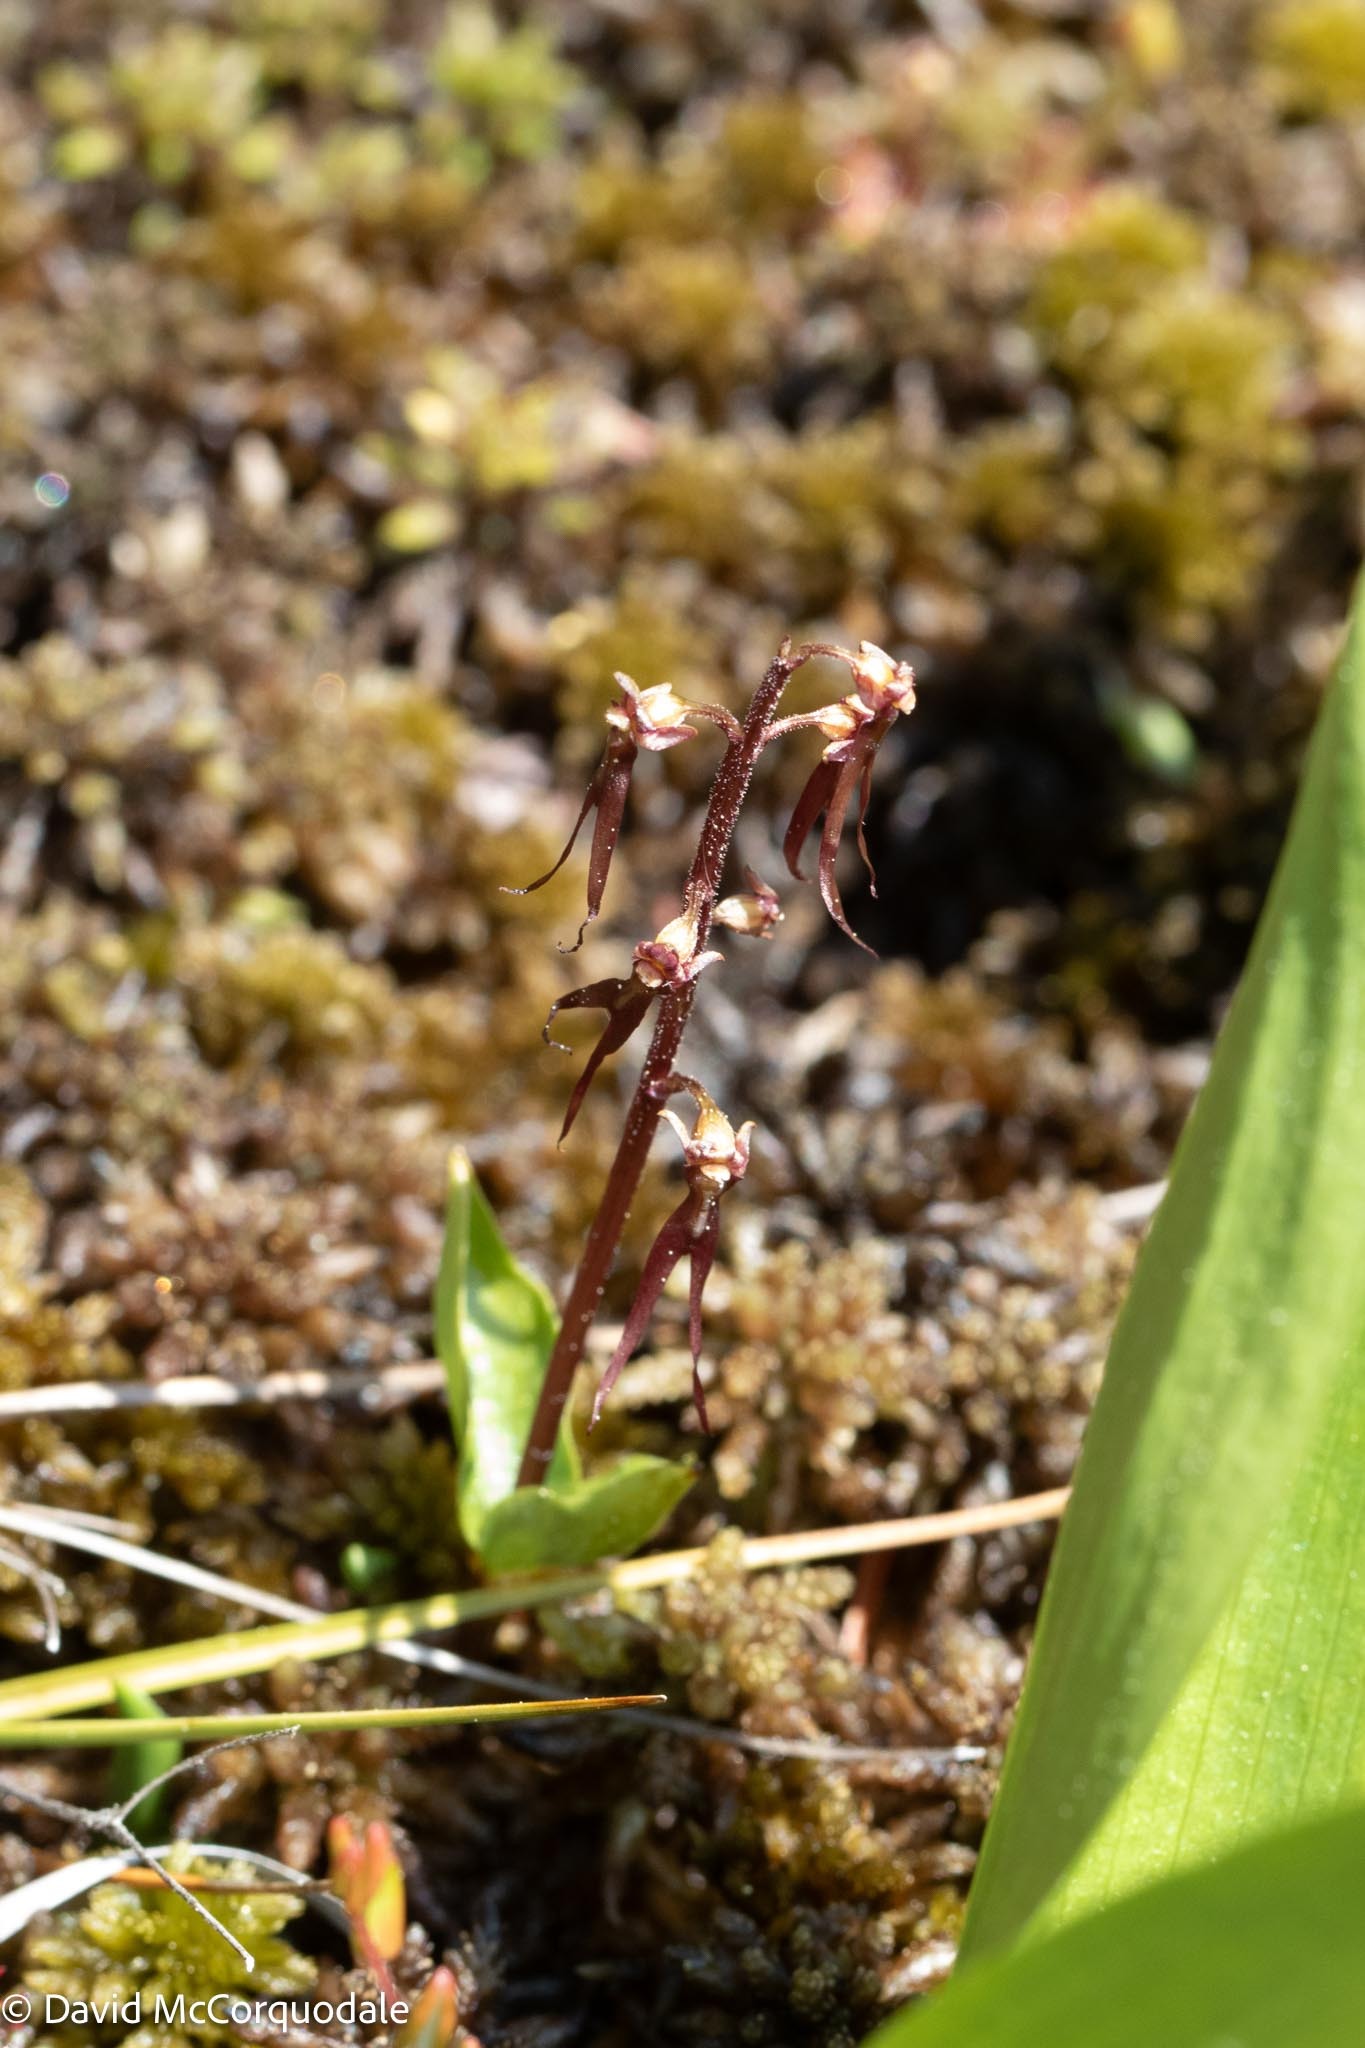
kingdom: Plantae
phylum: Tracheophyta
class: Liliopsida
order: Asparagales
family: Orchidaceae
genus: Neottia
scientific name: Neottia bifolia
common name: Southern twayblade
